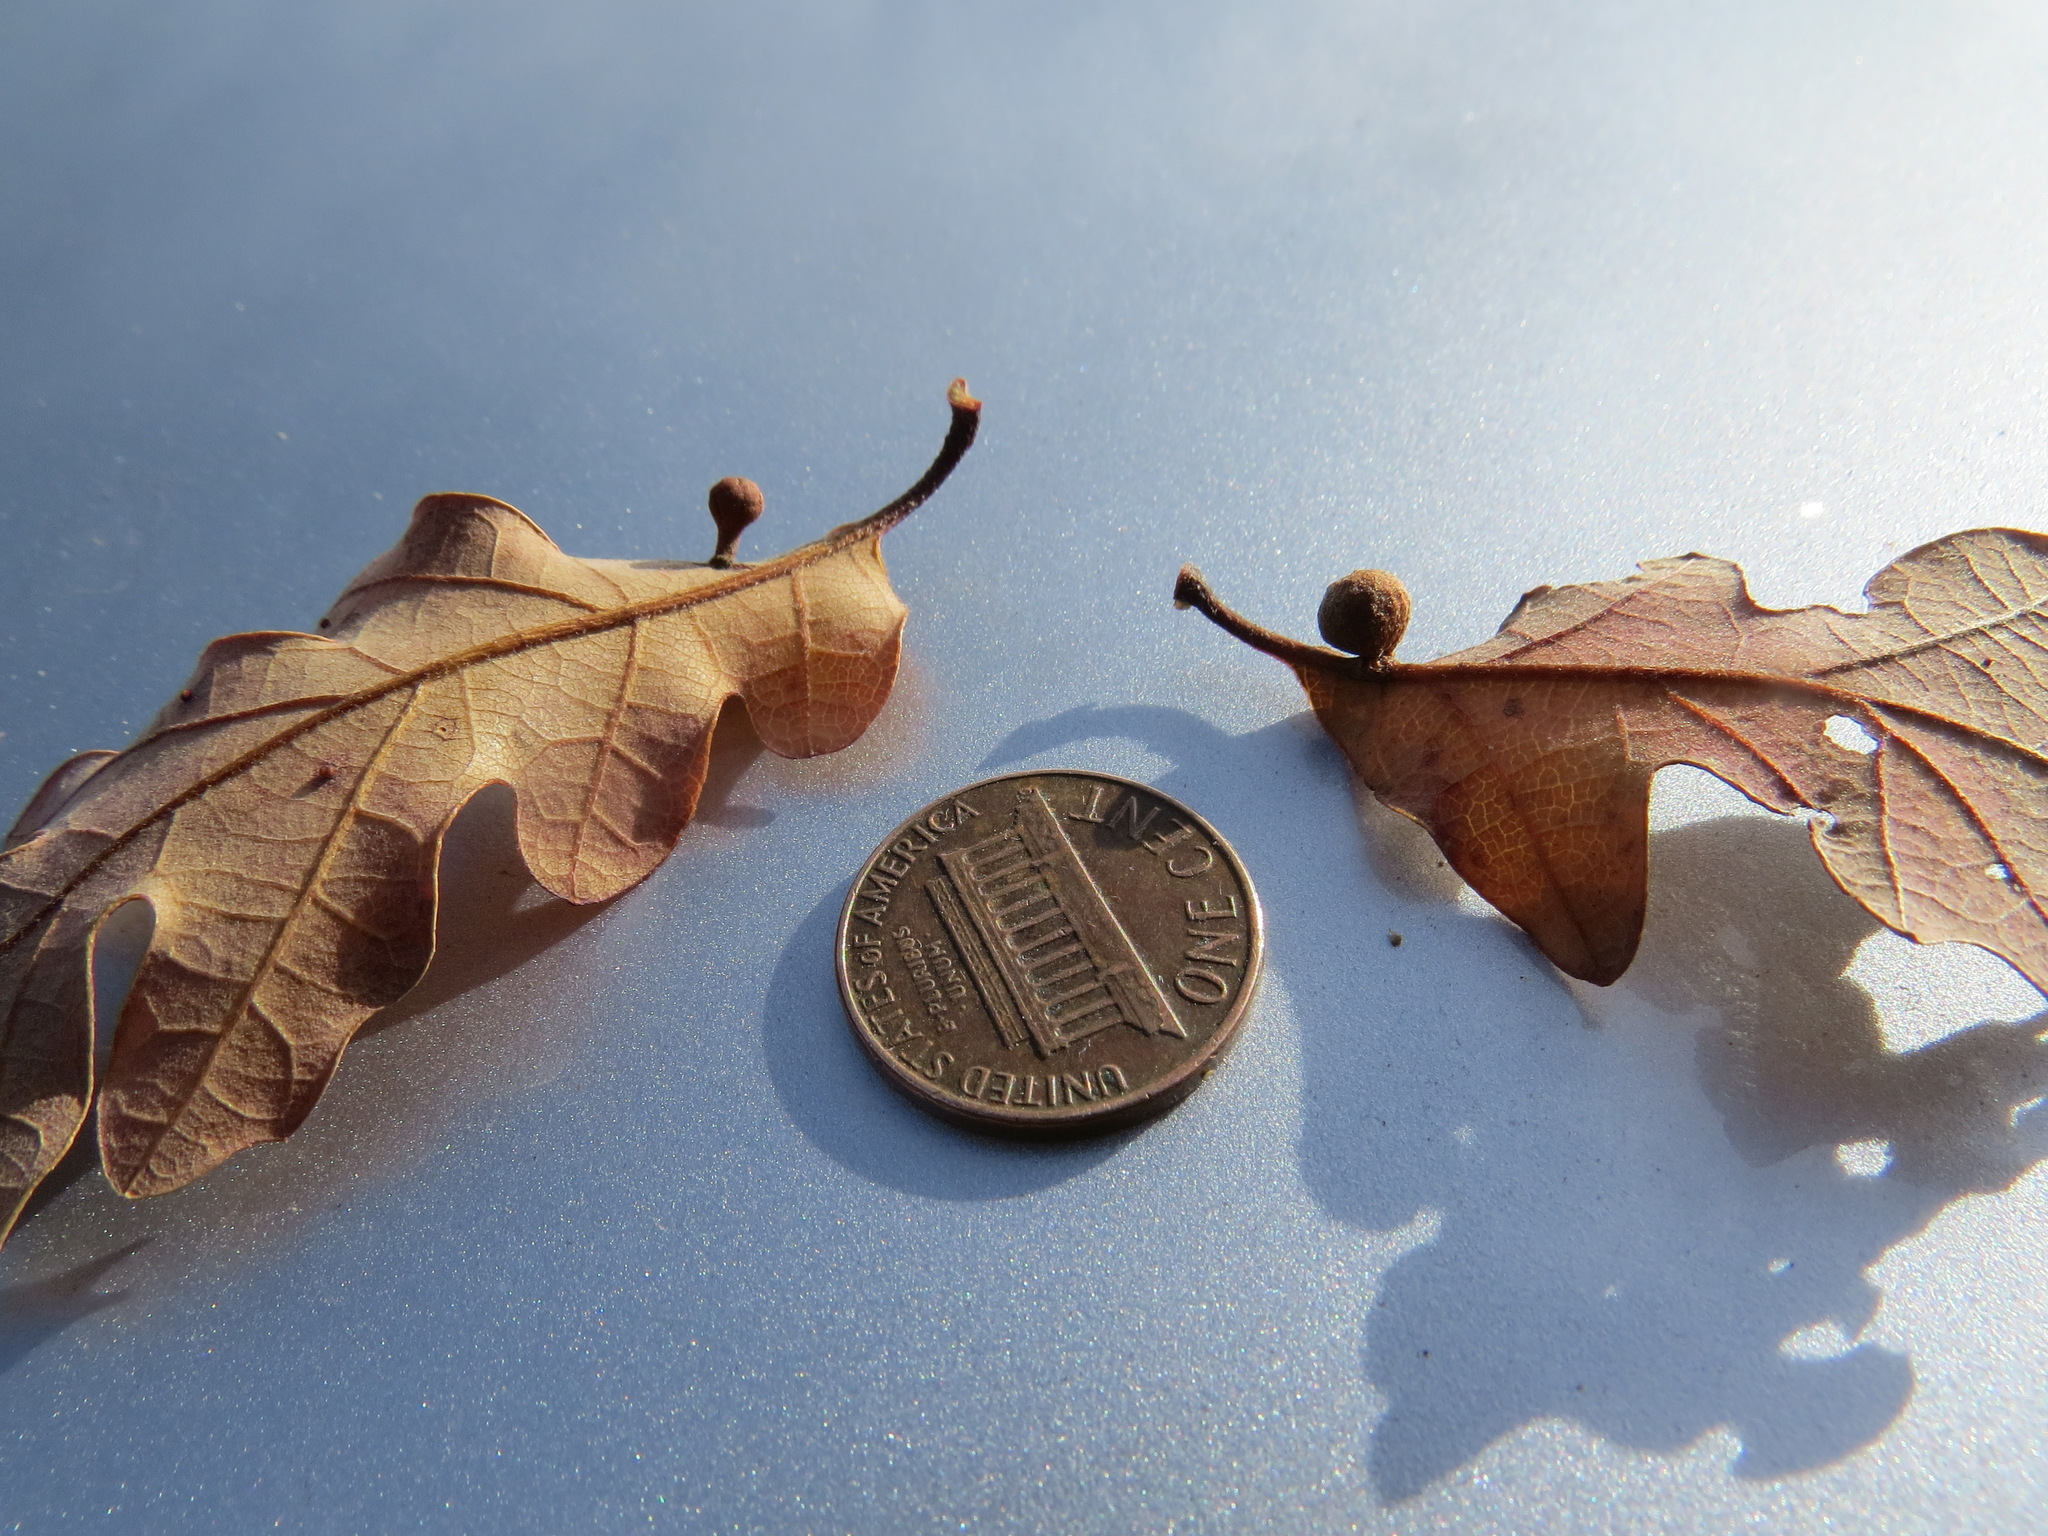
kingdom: Animalia
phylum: Arthropoda
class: Insecta
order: Hymenoptera
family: Cynipidae
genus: Trigonaspis
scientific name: Trigonaspis
